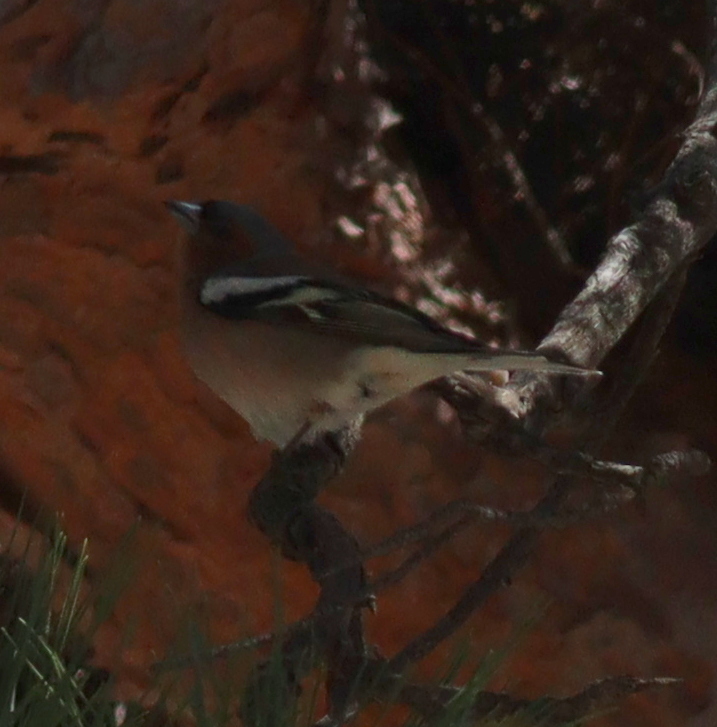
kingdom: Animalia
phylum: Chordata
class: Aves
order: Passeriformes
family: Fringillidae
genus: Fringilla
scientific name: Fringilla coelebs
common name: Common chaffinch
